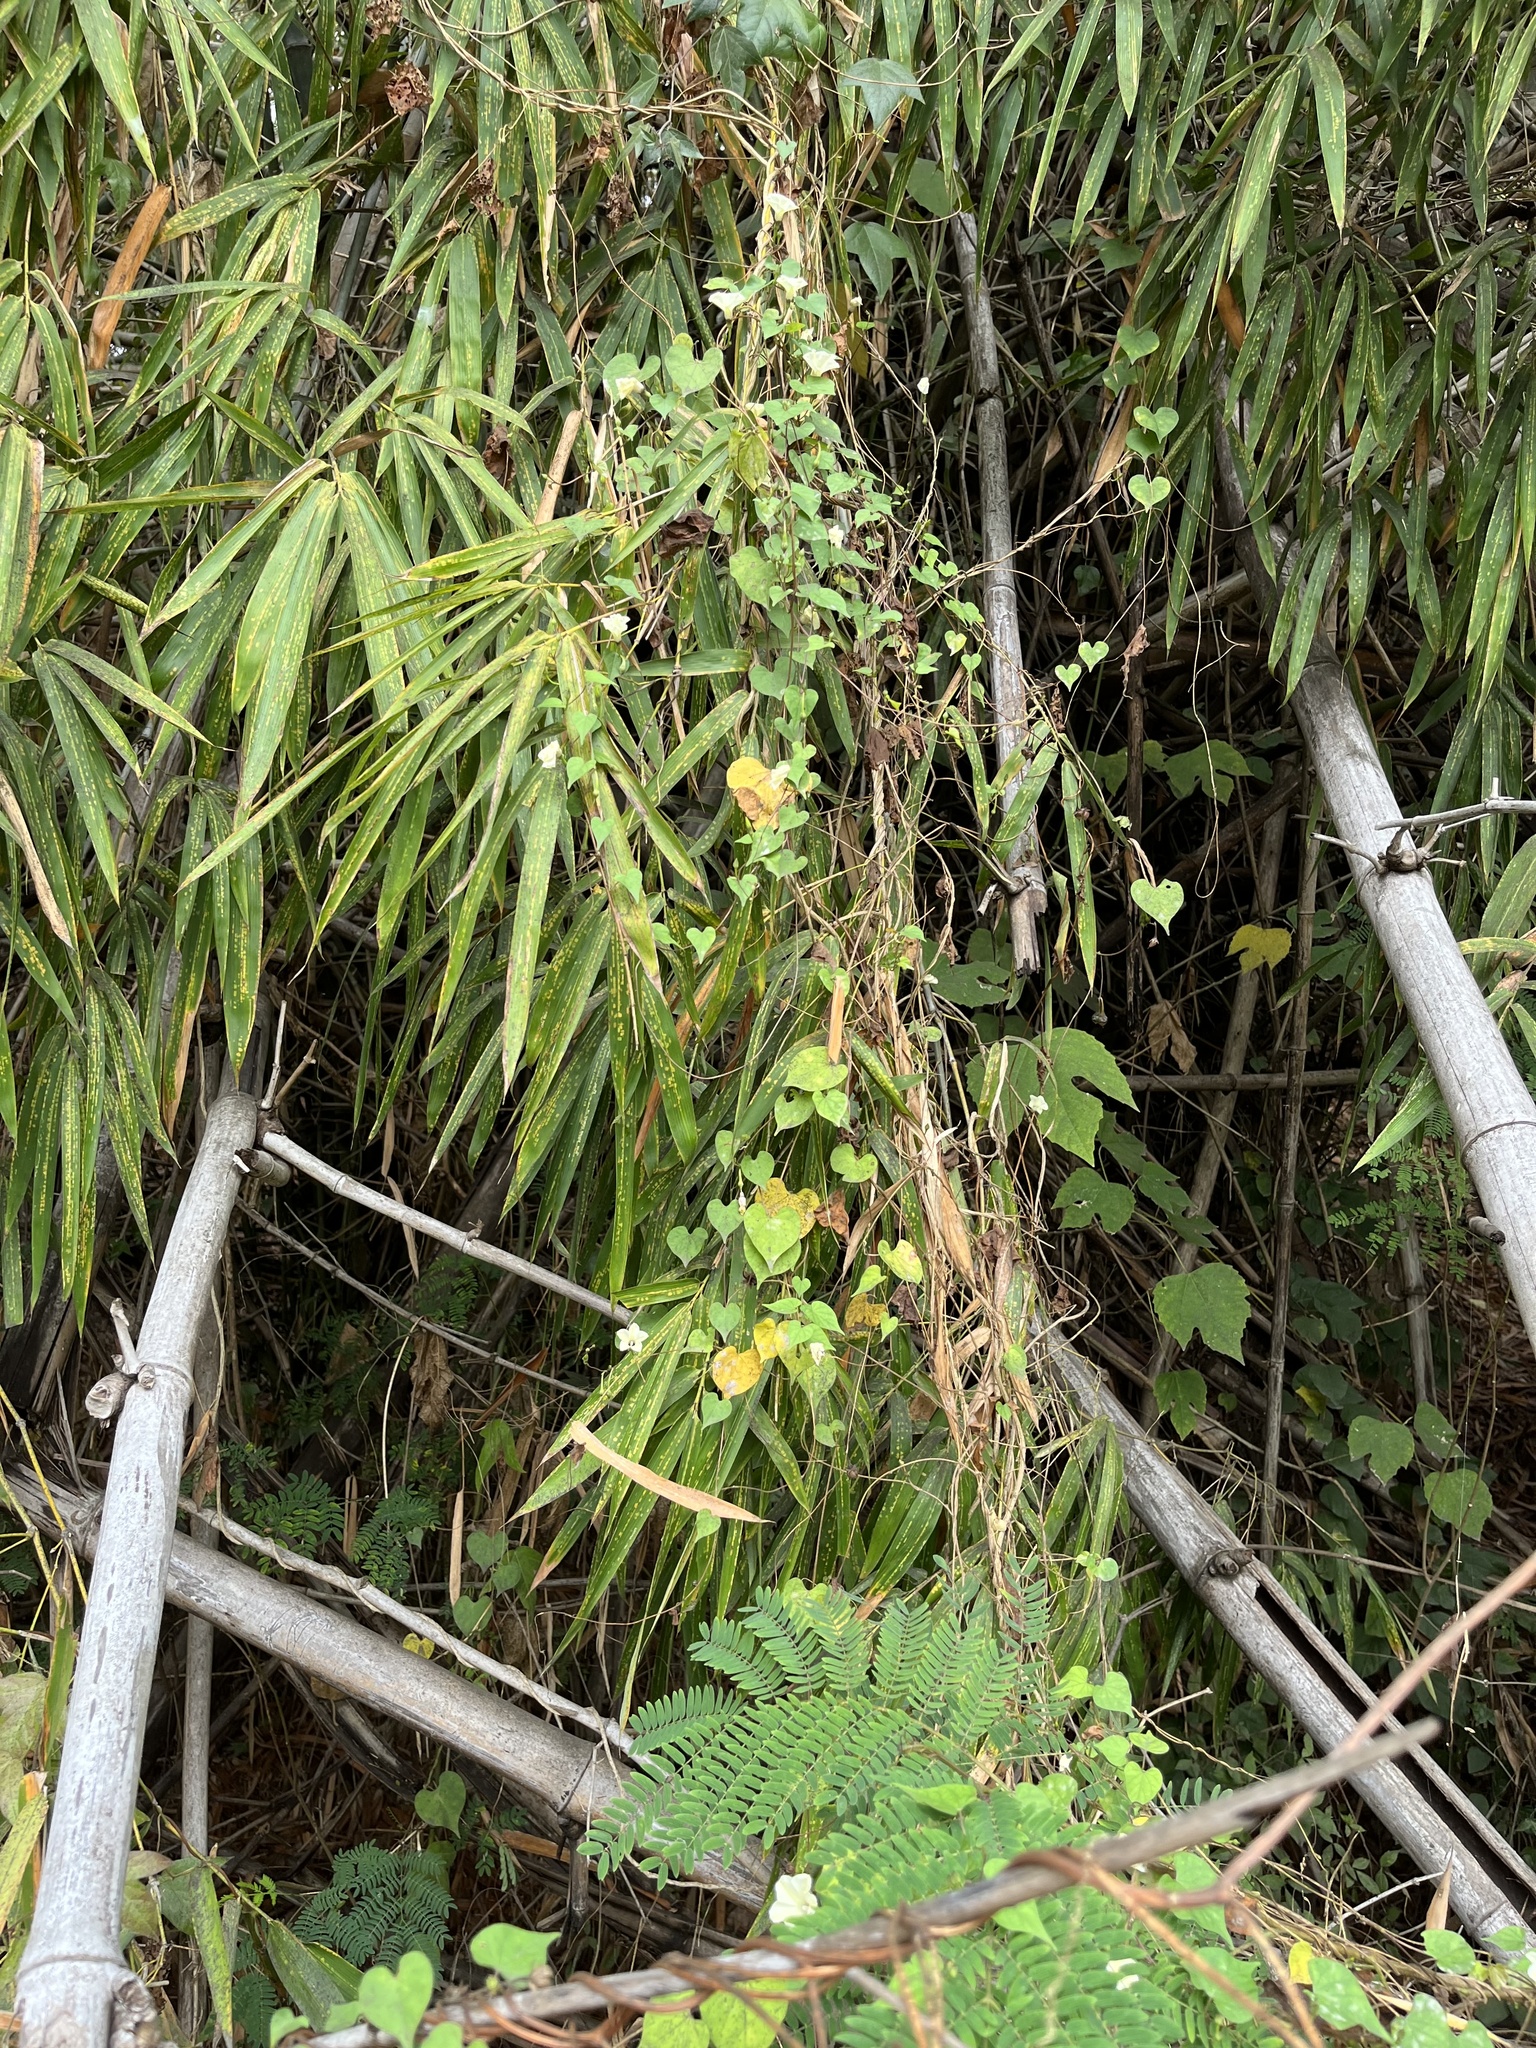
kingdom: Plantae
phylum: Tracheophyta
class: Magnoliopsida
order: Solanales
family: Convolvulaceae
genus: Ipomoea
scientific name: Ipomoea obscura
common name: Obscure morning-glory
